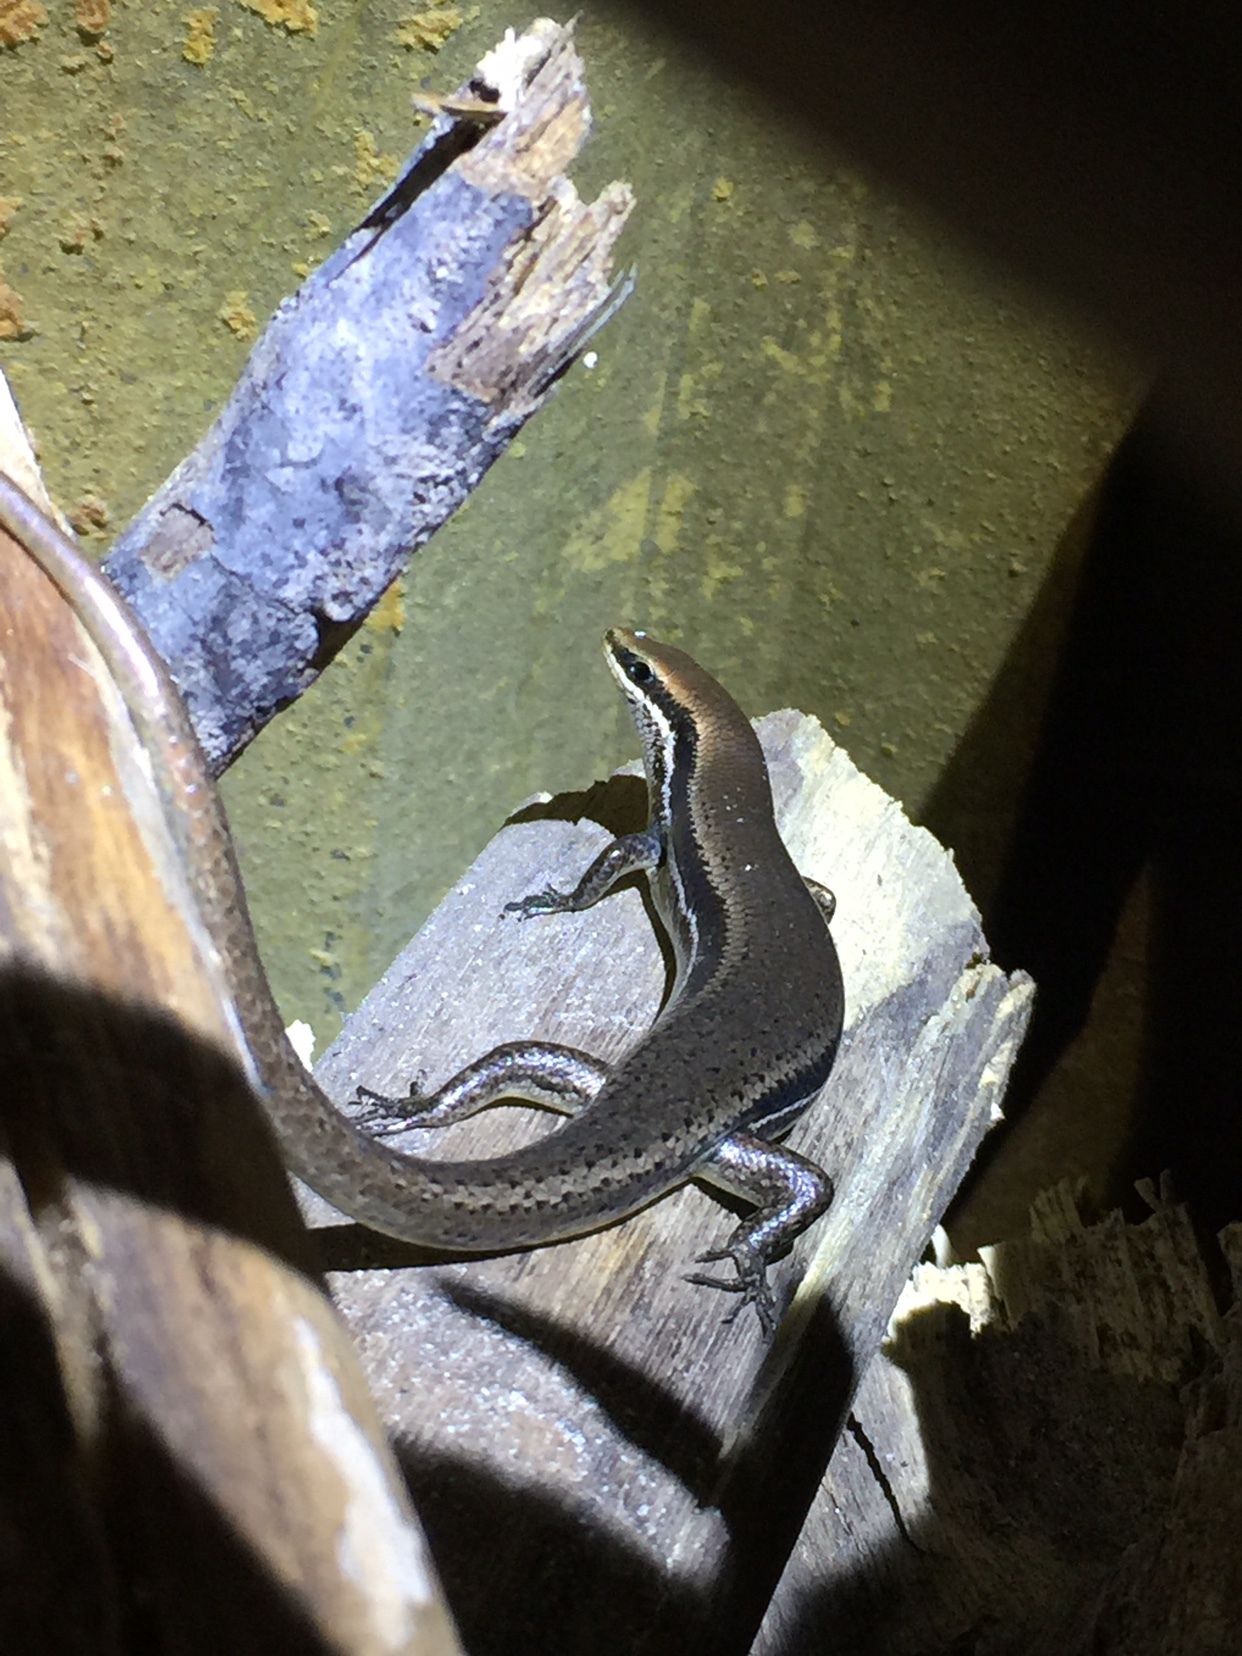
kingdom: Animalia
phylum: Chordata
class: Squamata
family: Scincidae
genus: Marisora
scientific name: Marisora brachypoda
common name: Western middle america skink
